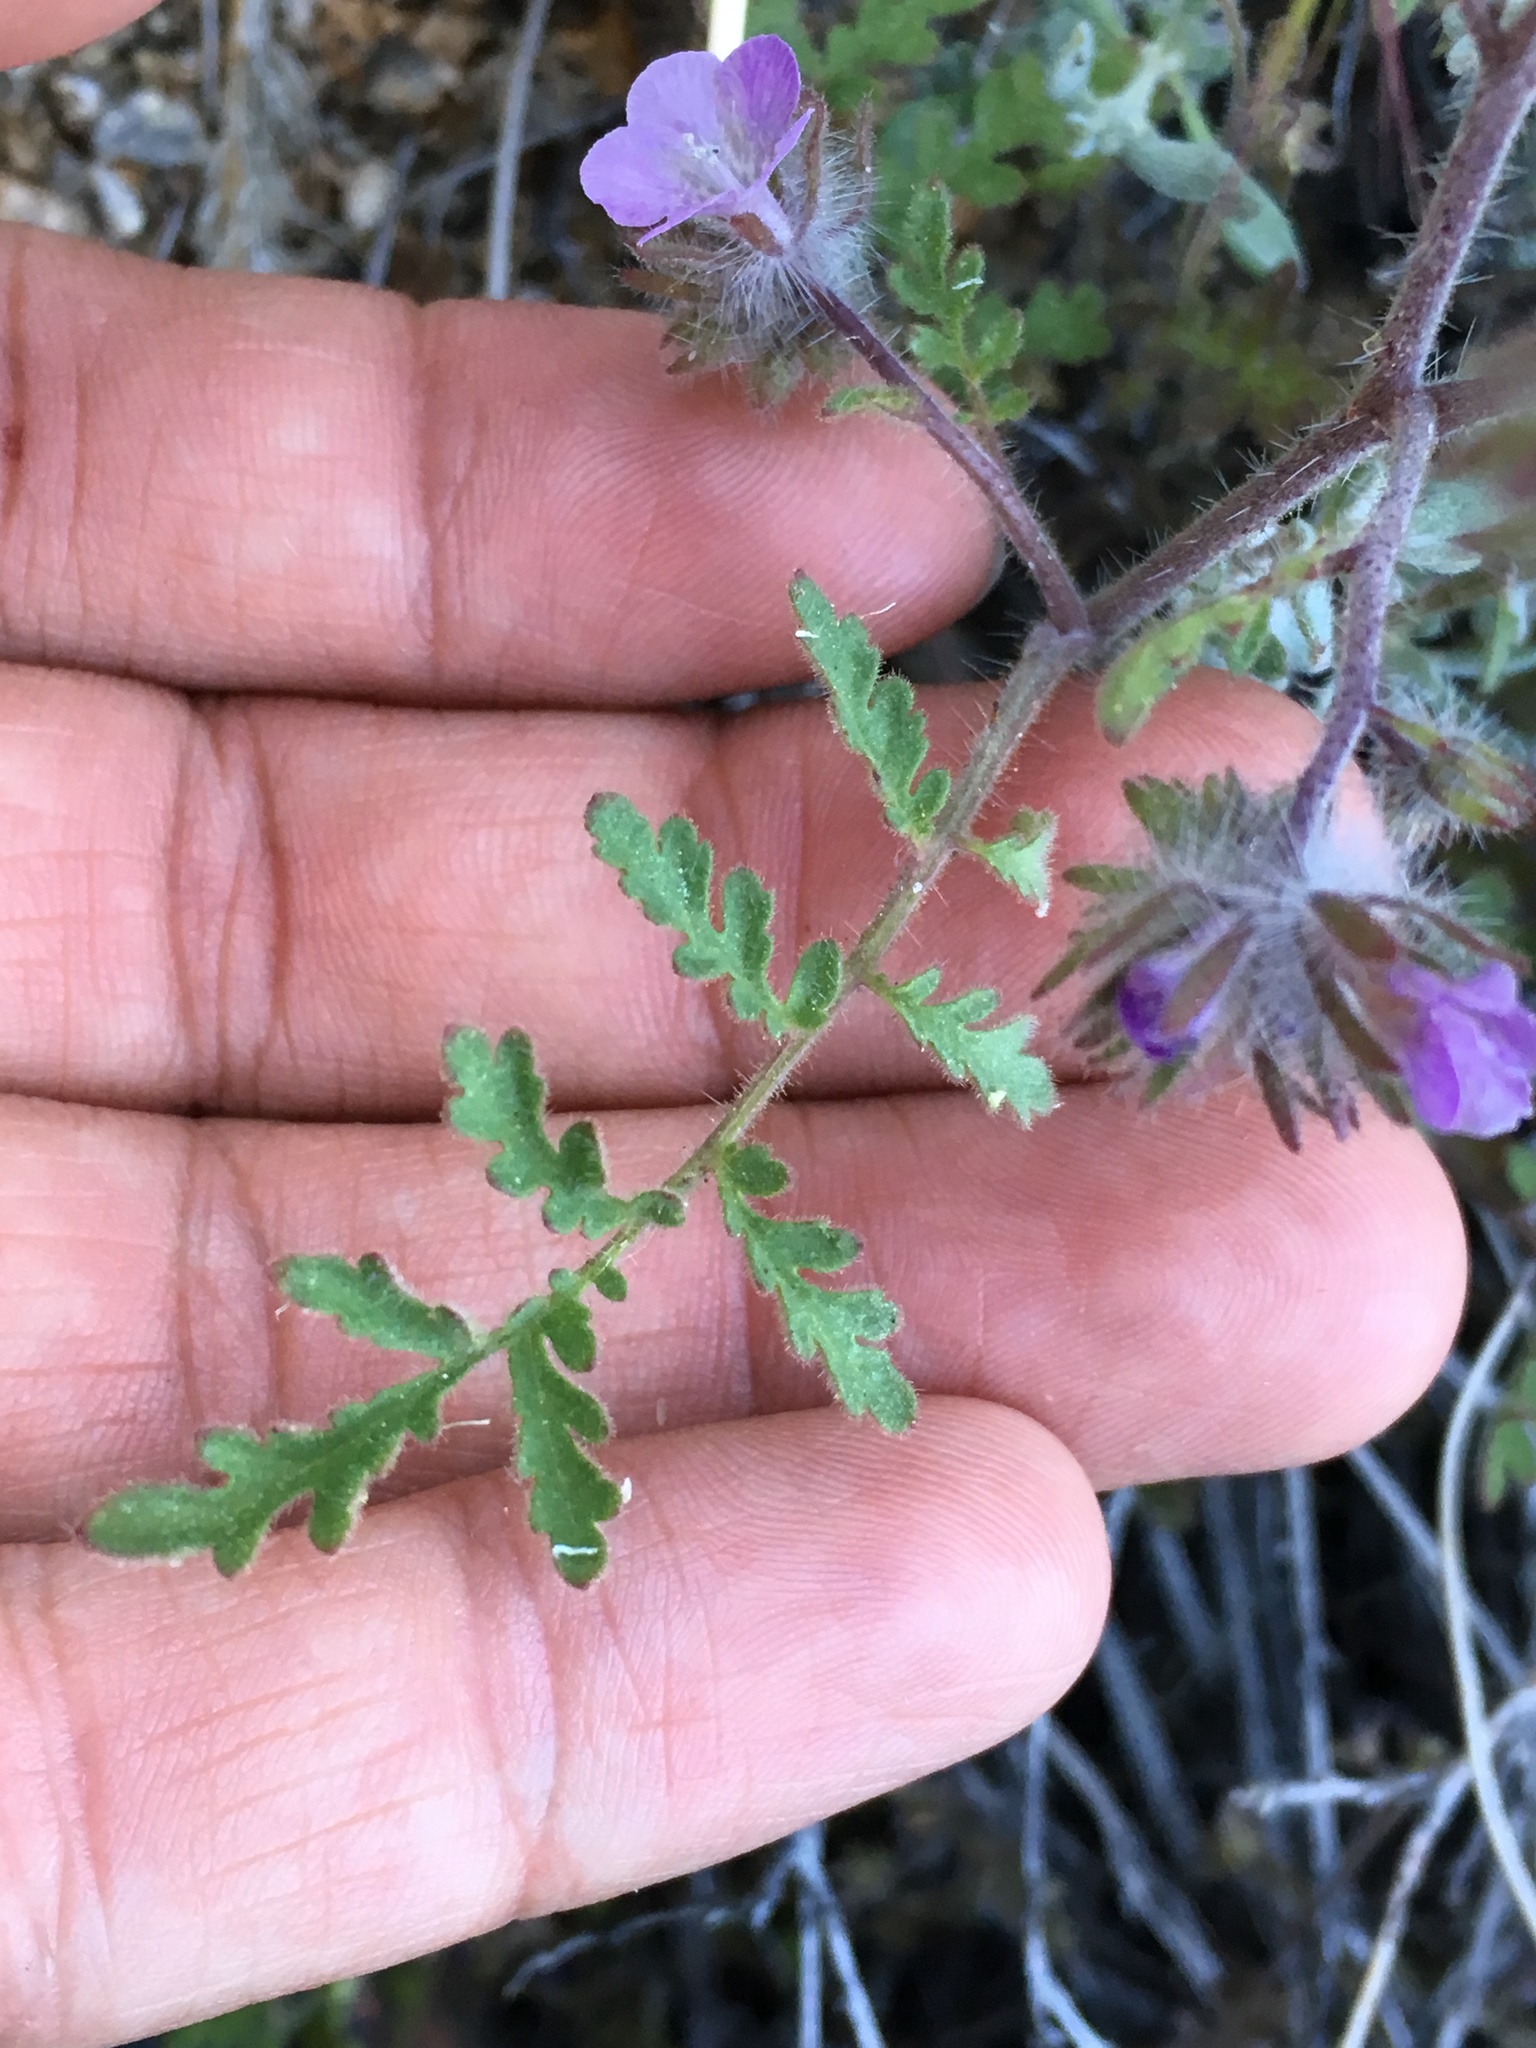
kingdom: Plantae
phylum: Tracheophyta
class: Magnoliopsida
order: Boraginales
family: Hydrophyllaceae
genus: Phacelia
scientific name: Phacelia vallis-mortae
